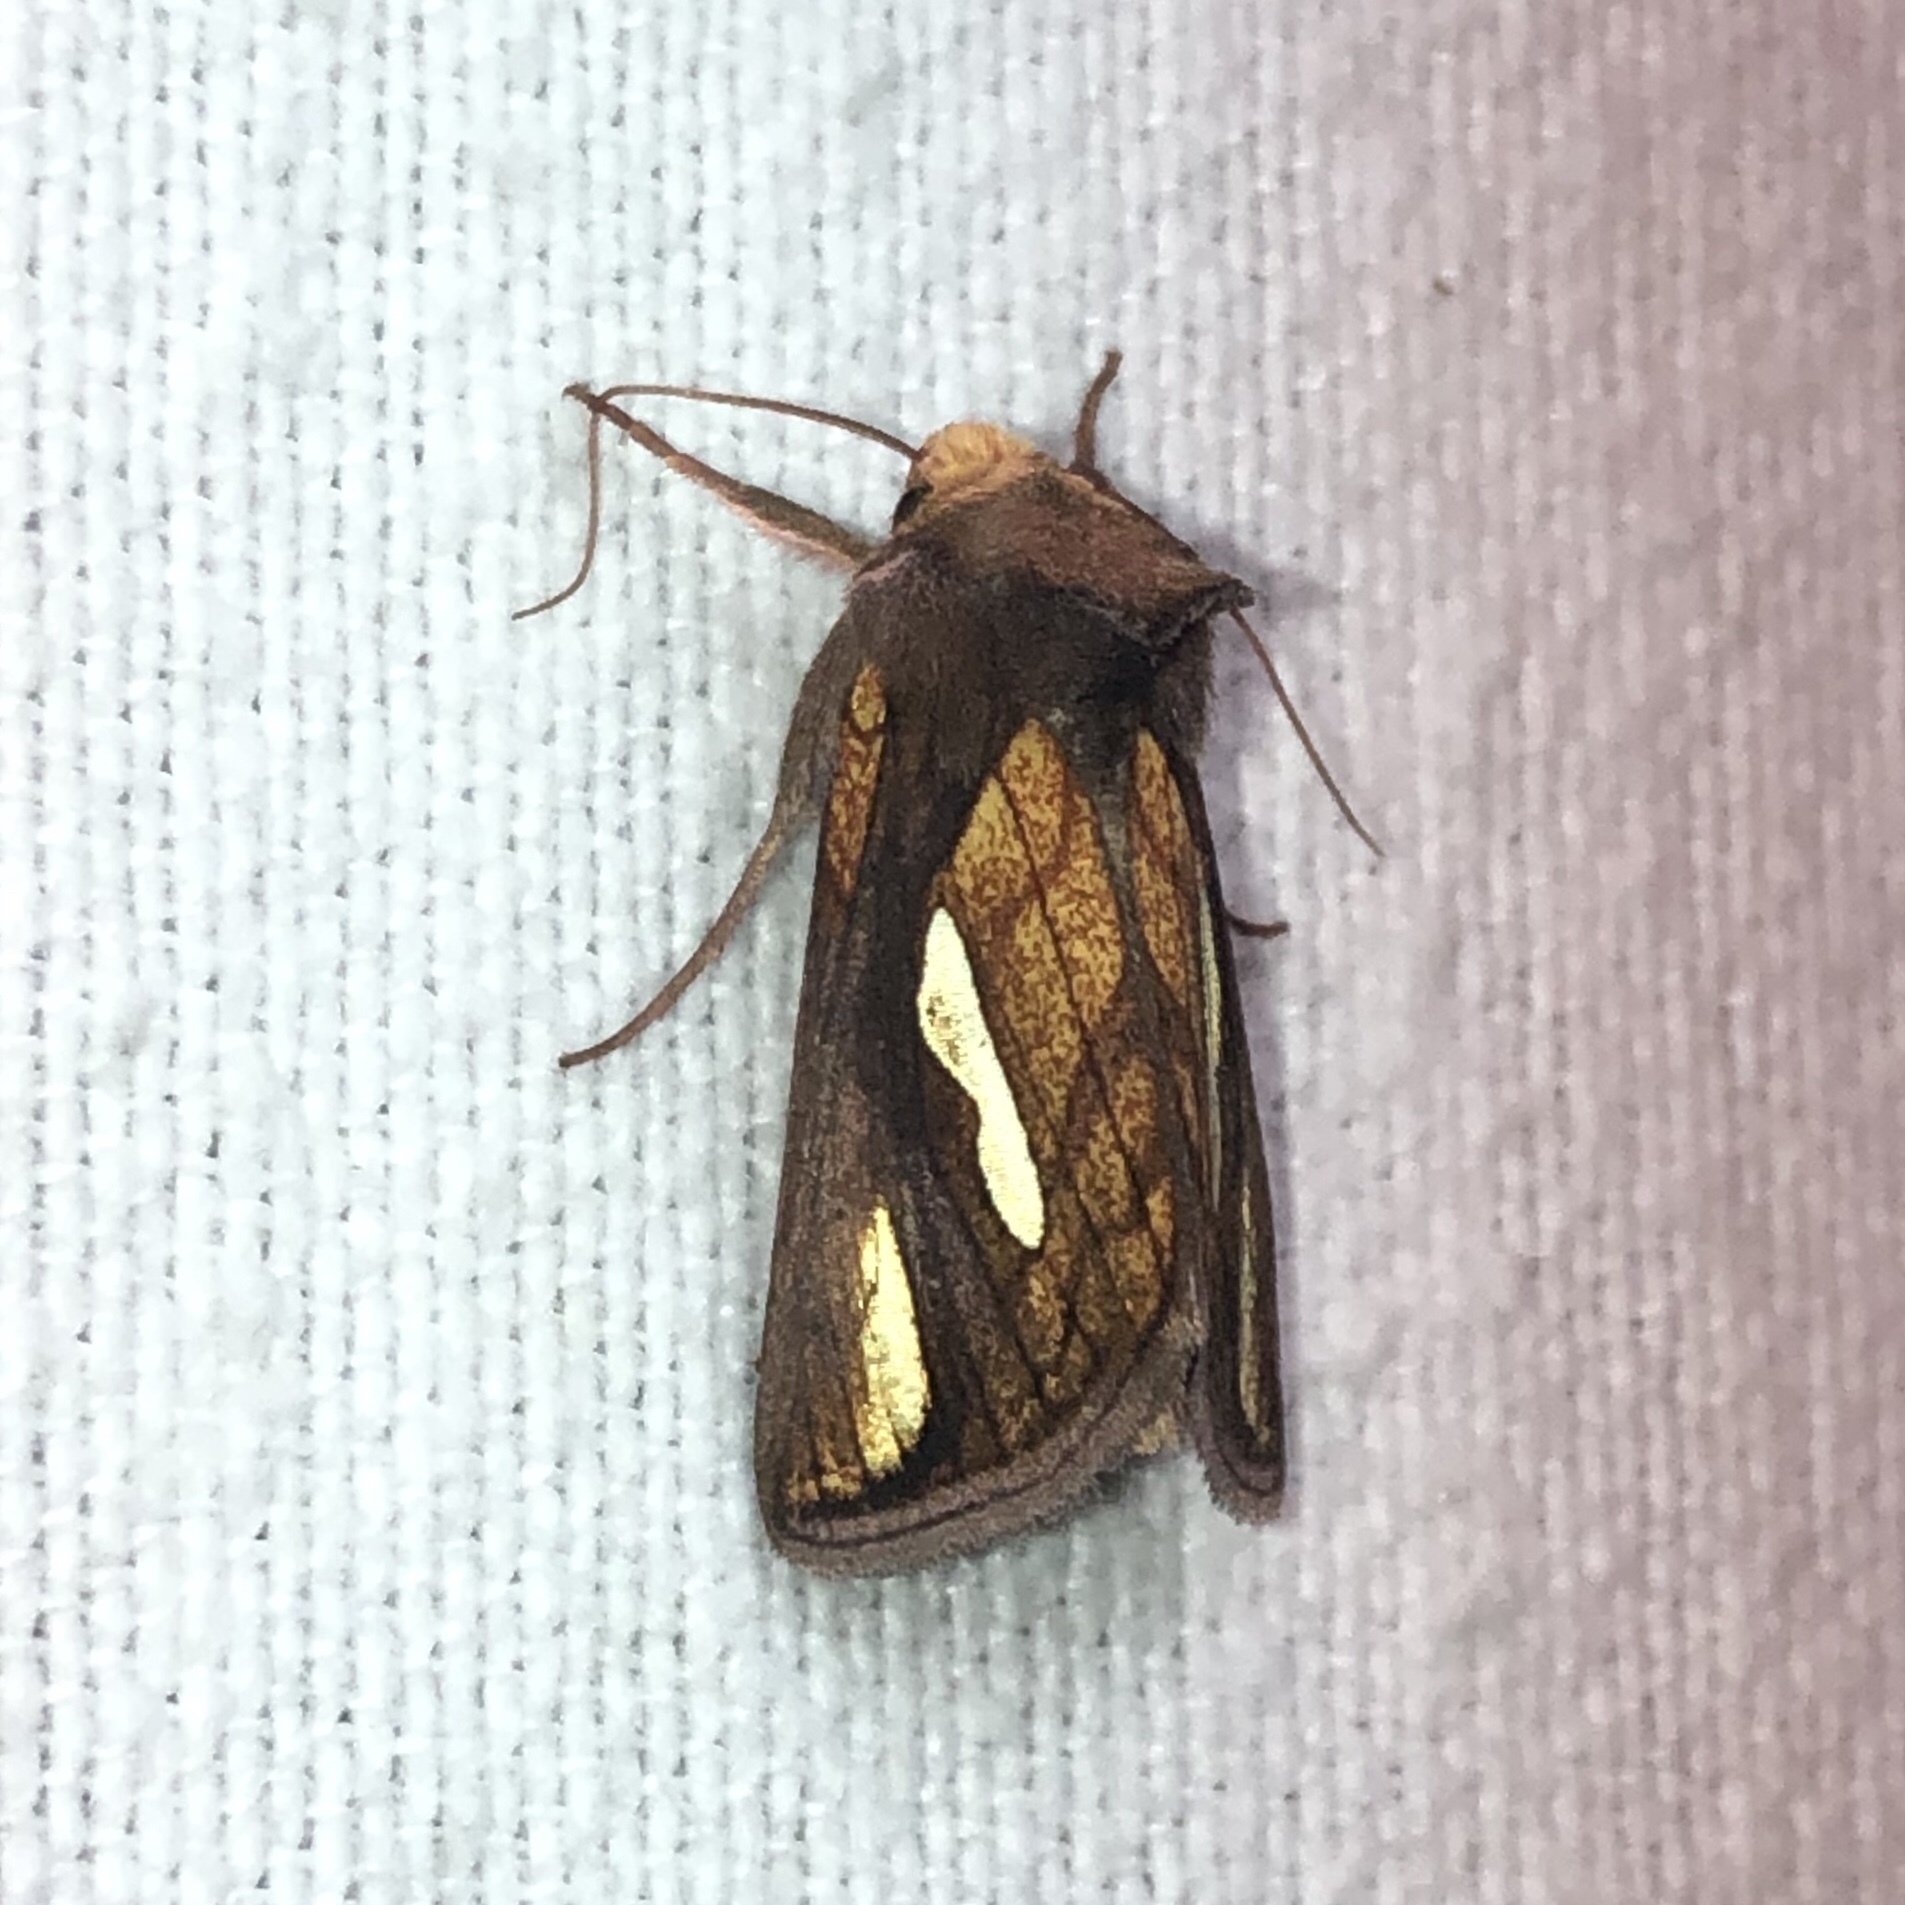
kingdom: Animalia
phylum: Arthropoda
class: Insecta
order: Lepidoptera
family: Noctuidae
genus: Plusia
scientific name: Plusia contexta
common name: Connected looper moth
